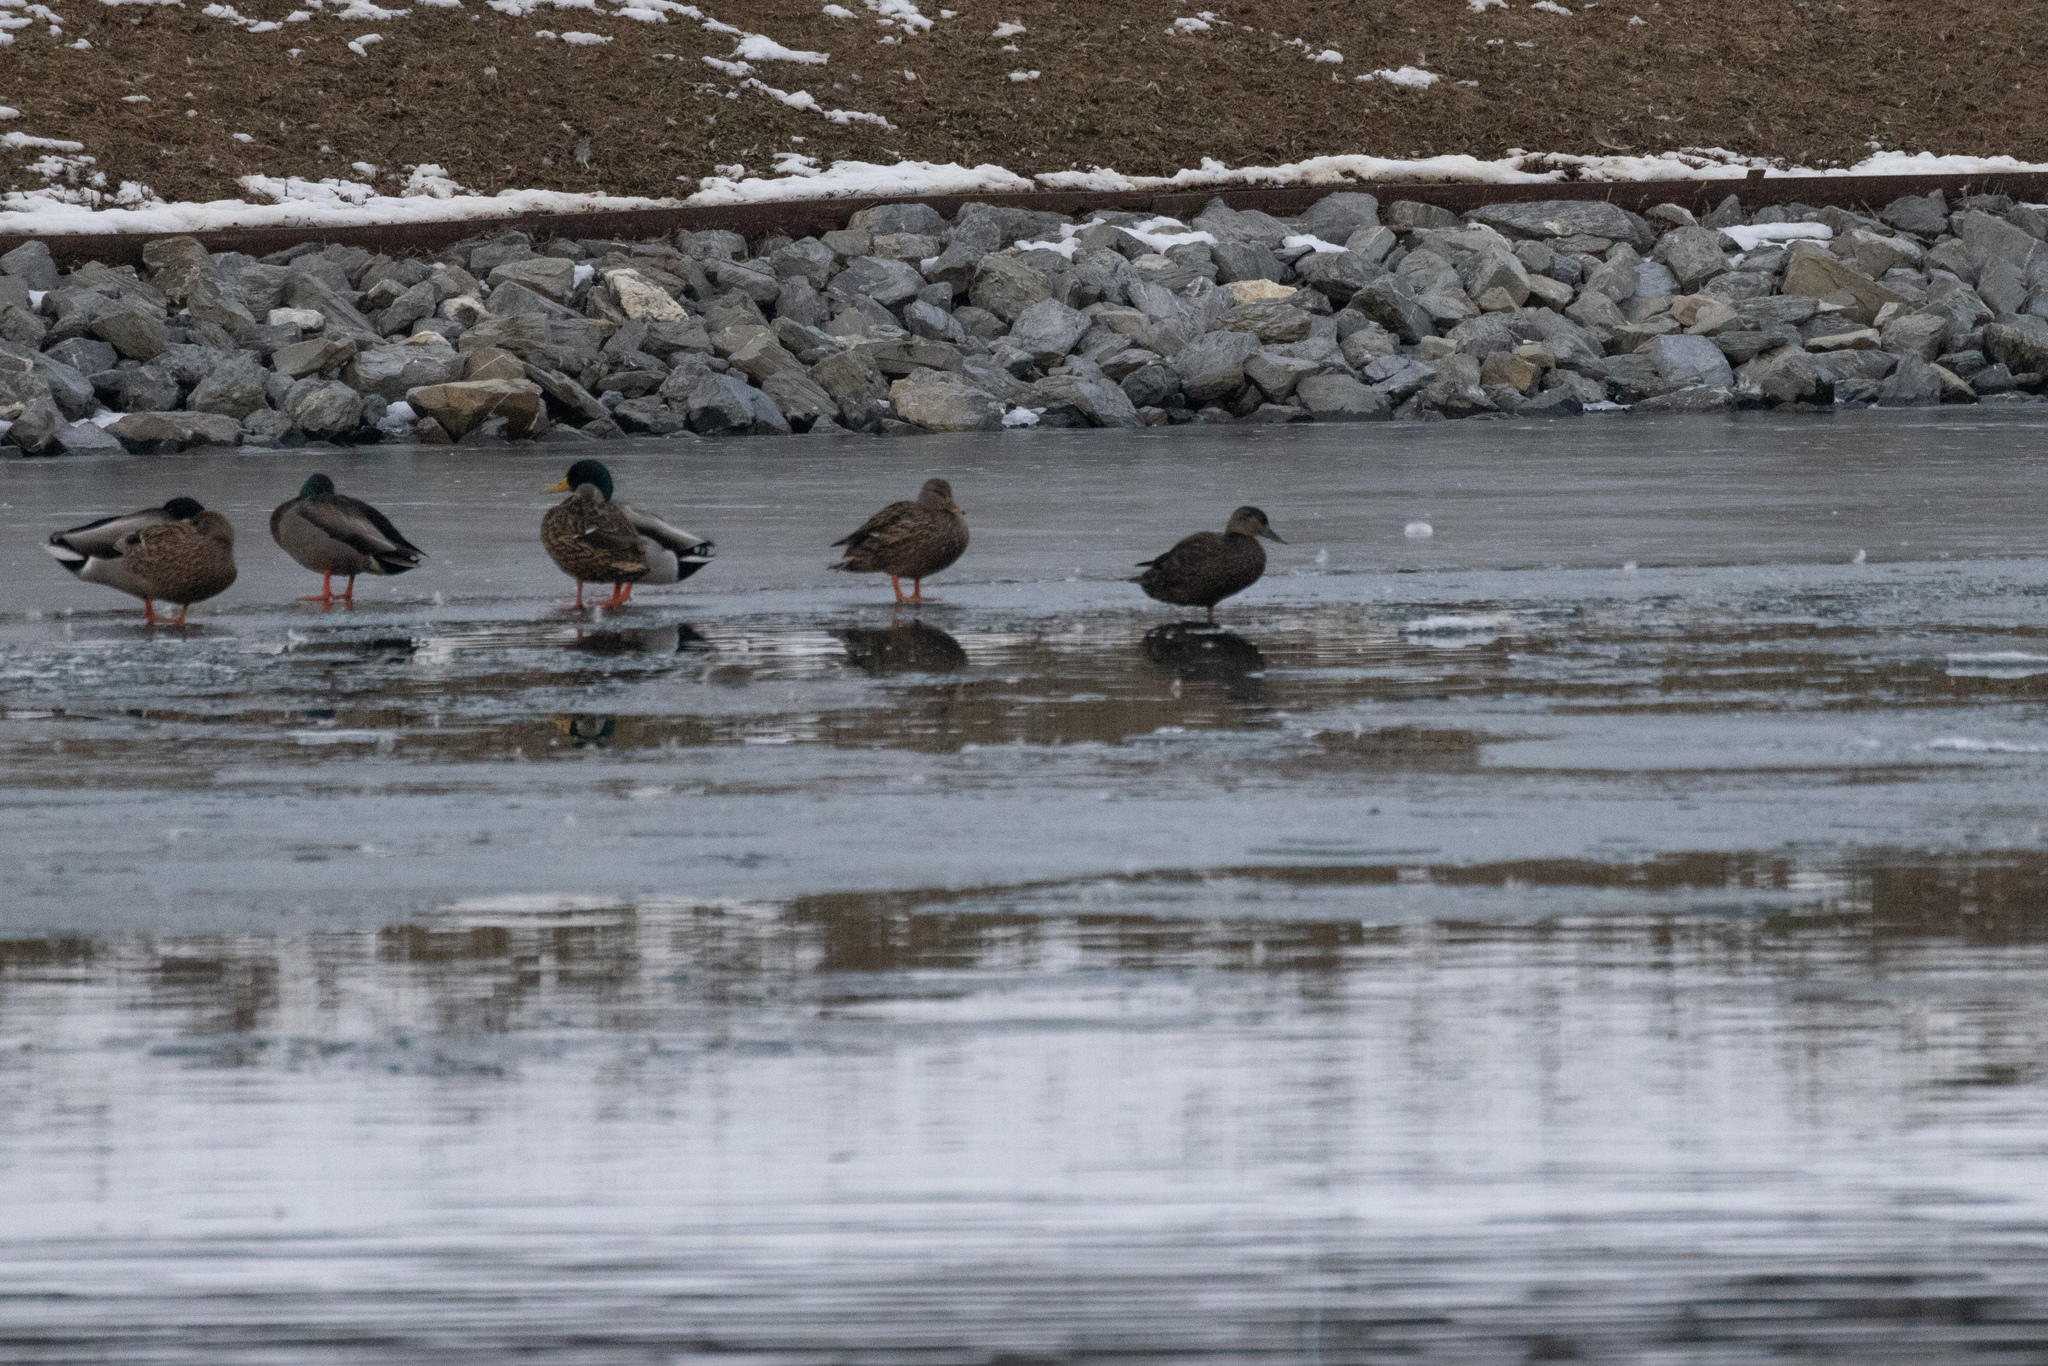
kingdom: Animalia
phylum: Chordata
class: Aves
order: Anseriformes
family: Anatidae
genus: Anas
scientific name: Anas rubripes
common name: American black duck
